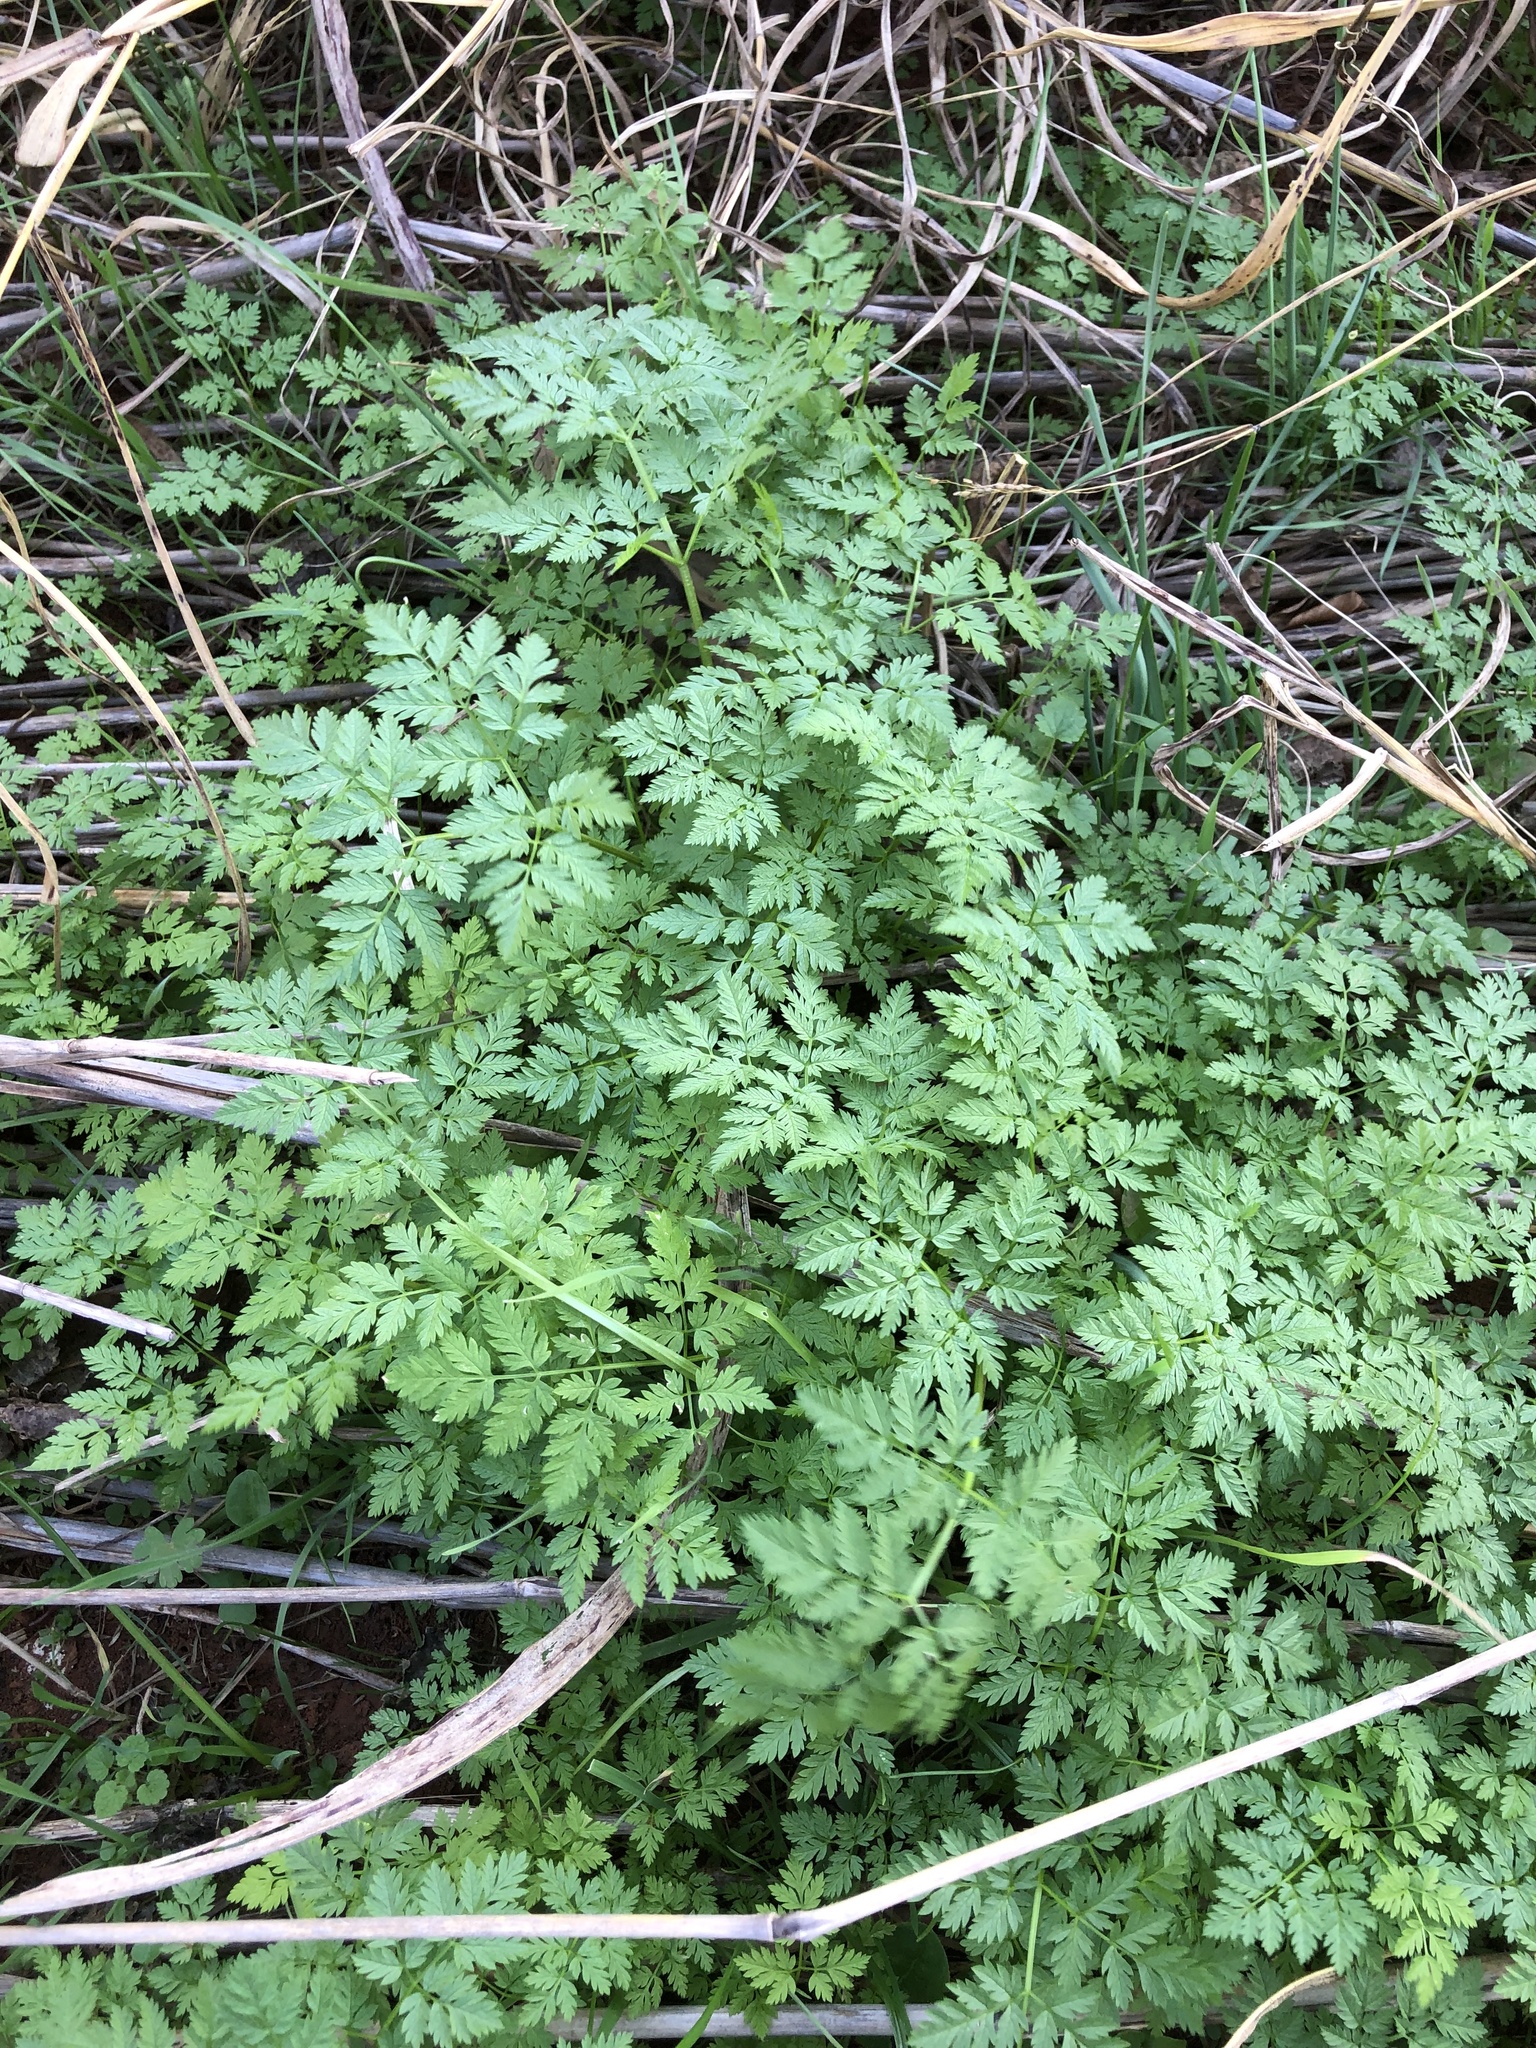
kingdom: Plantae
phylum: Tracheophyta
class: Magnoliopsida
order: Apiales
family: Apiaceae
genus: Conium
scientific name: Conium maculatum
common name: Hemlock
